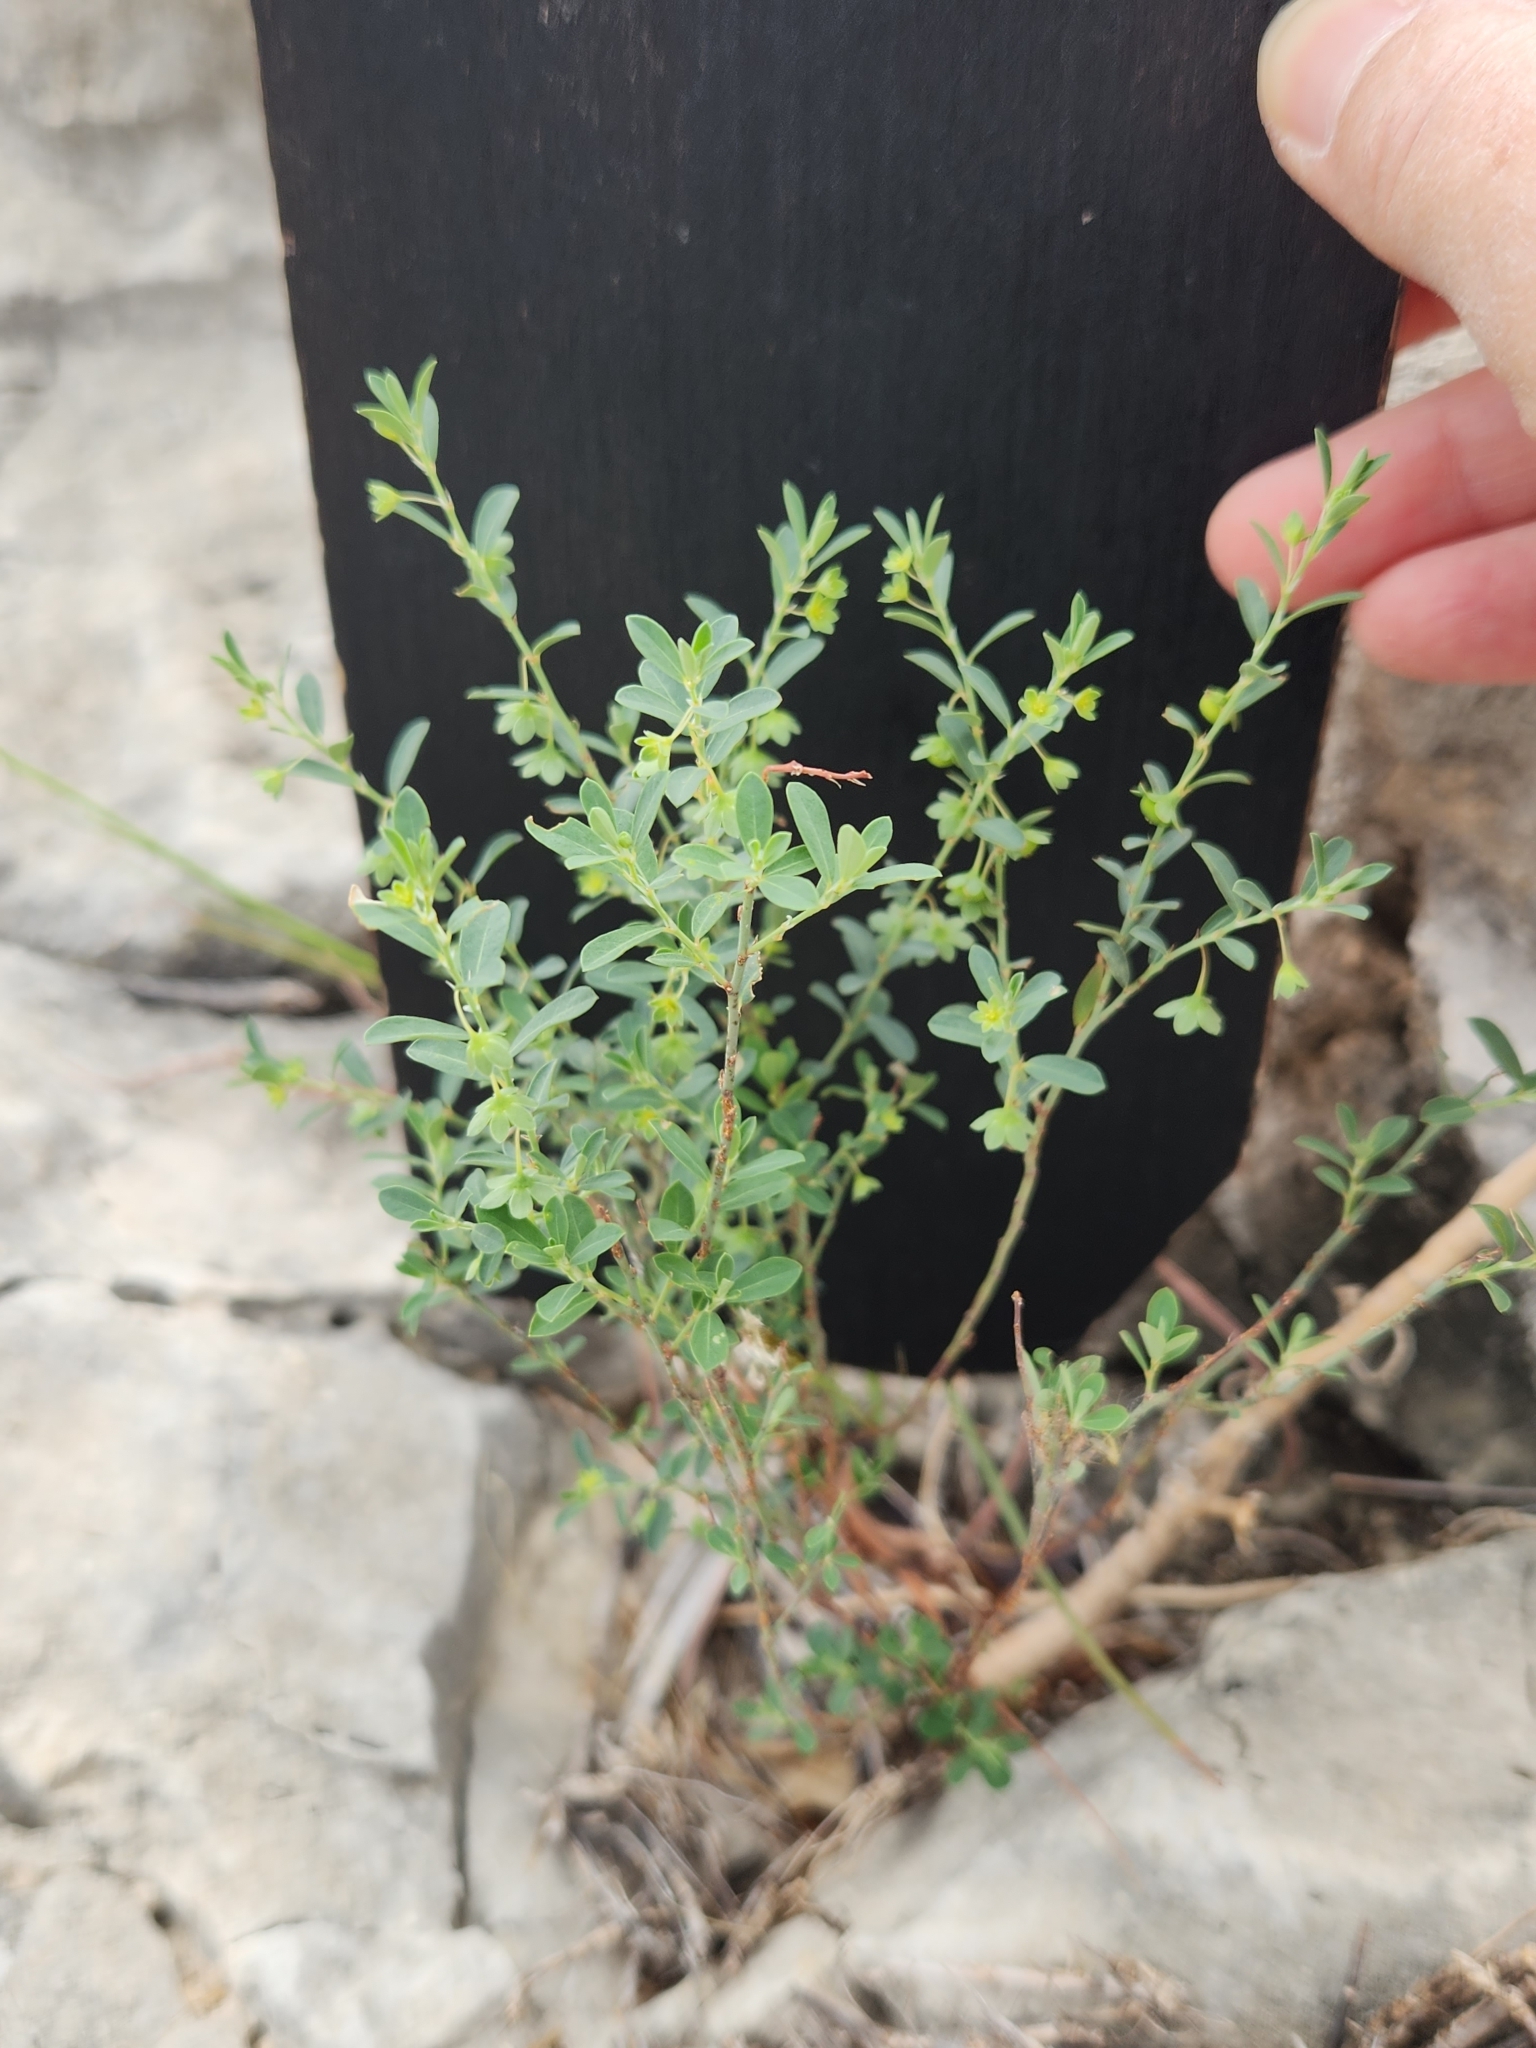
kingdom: Plantae
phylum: Tracheophyta
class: Magnoliopsida
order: Malpighiales
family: Phyllanthaceae
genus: Phyllanthus
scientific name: Phyllanthus polygonoides
